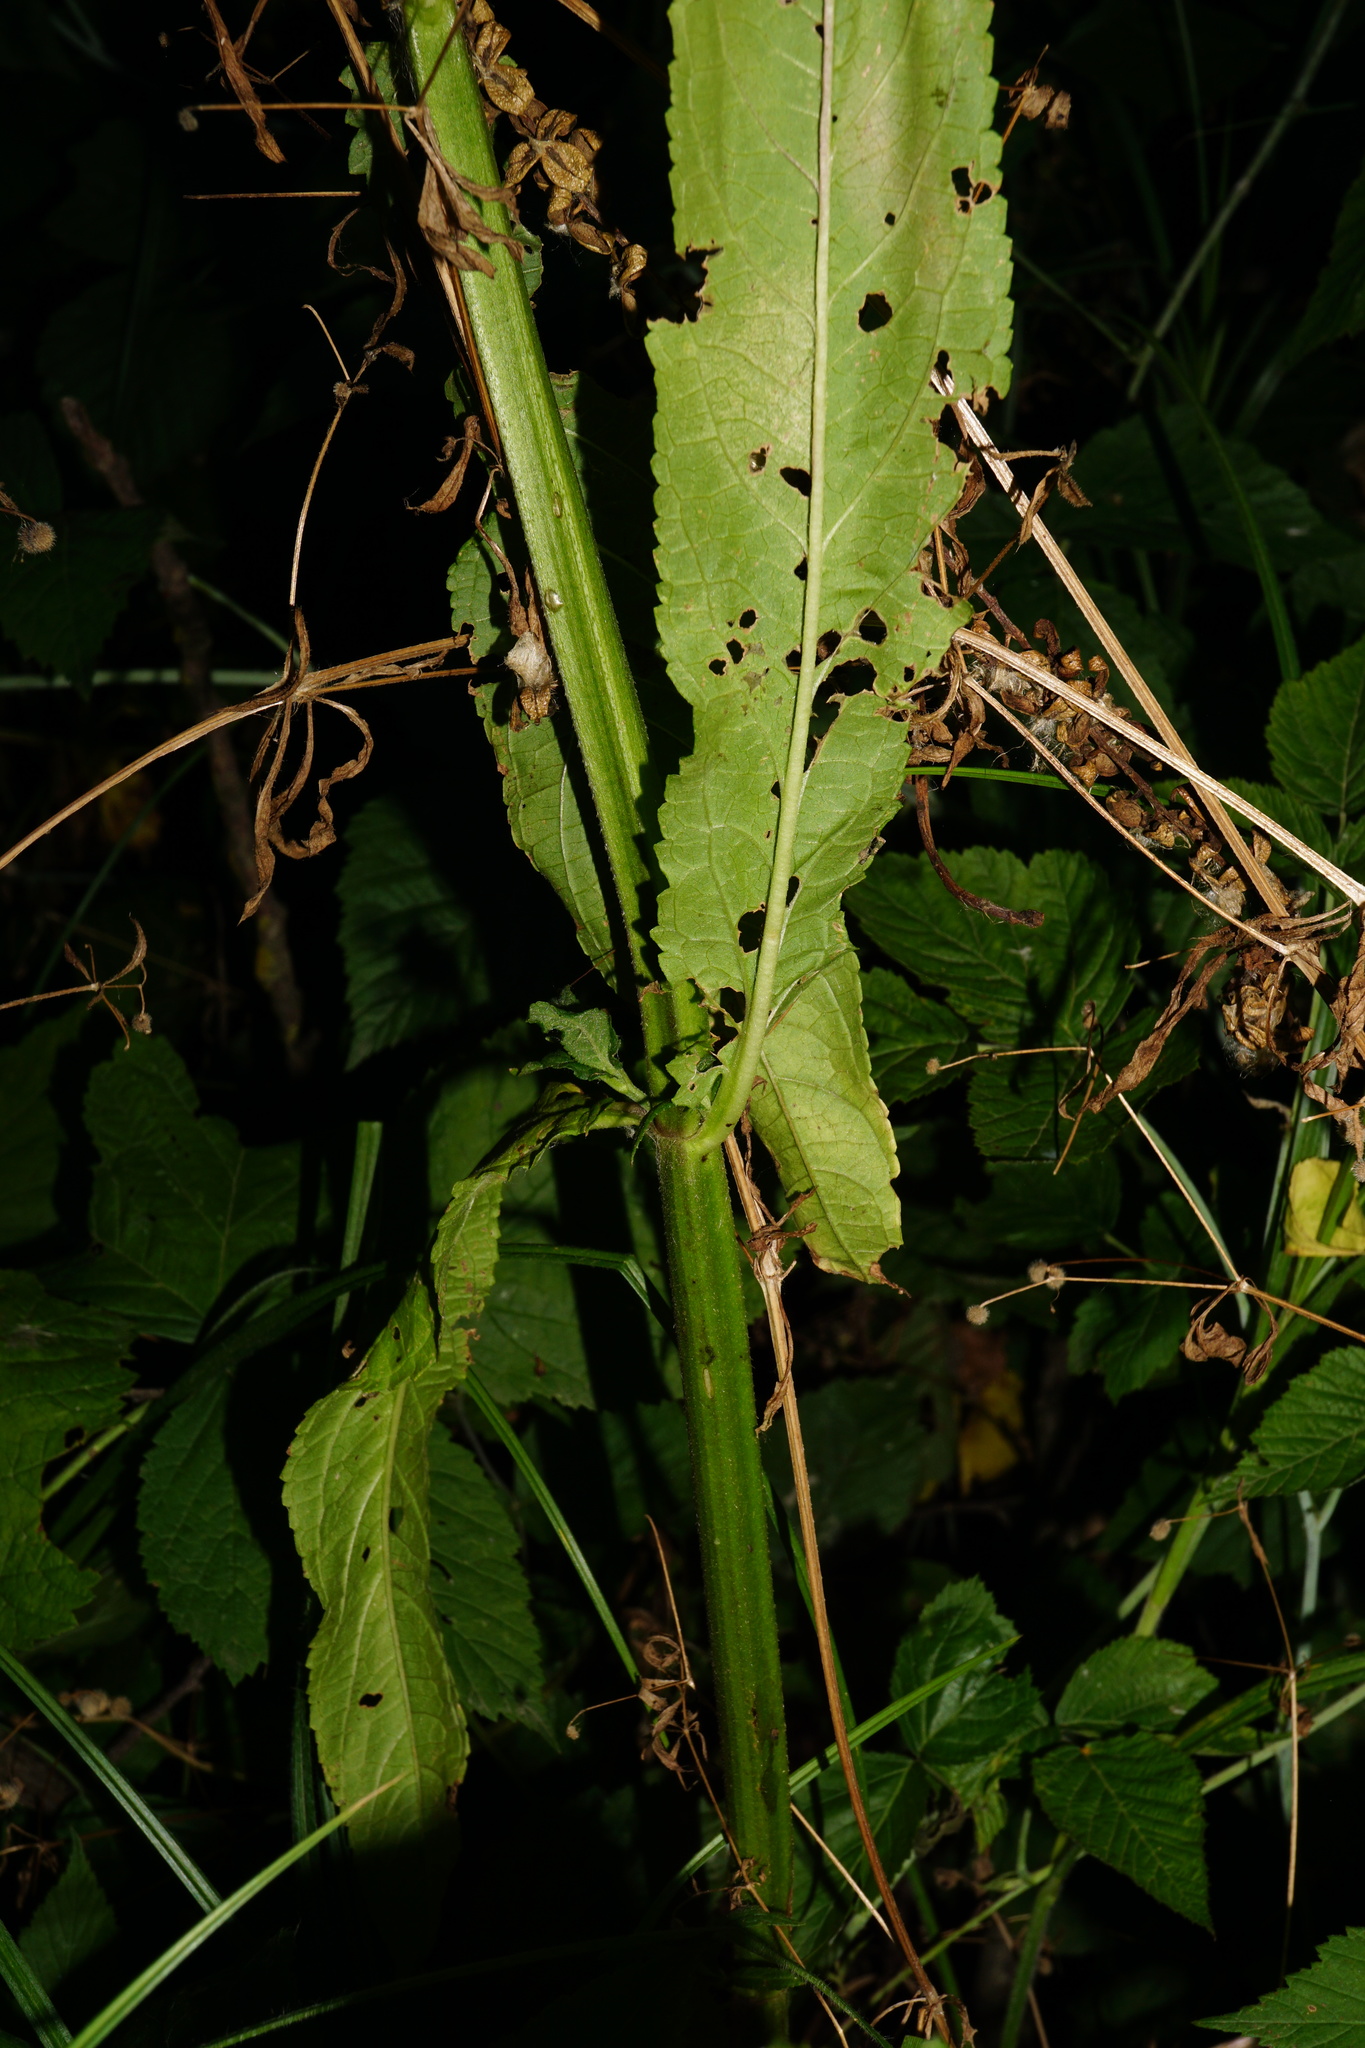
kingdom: Plantae
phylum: Tracheophyta
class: Magnoliopsida
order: Lamiales
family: Lamiaceae
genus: Stachys
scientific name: Stachys palustris
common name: Marsh woundwort
